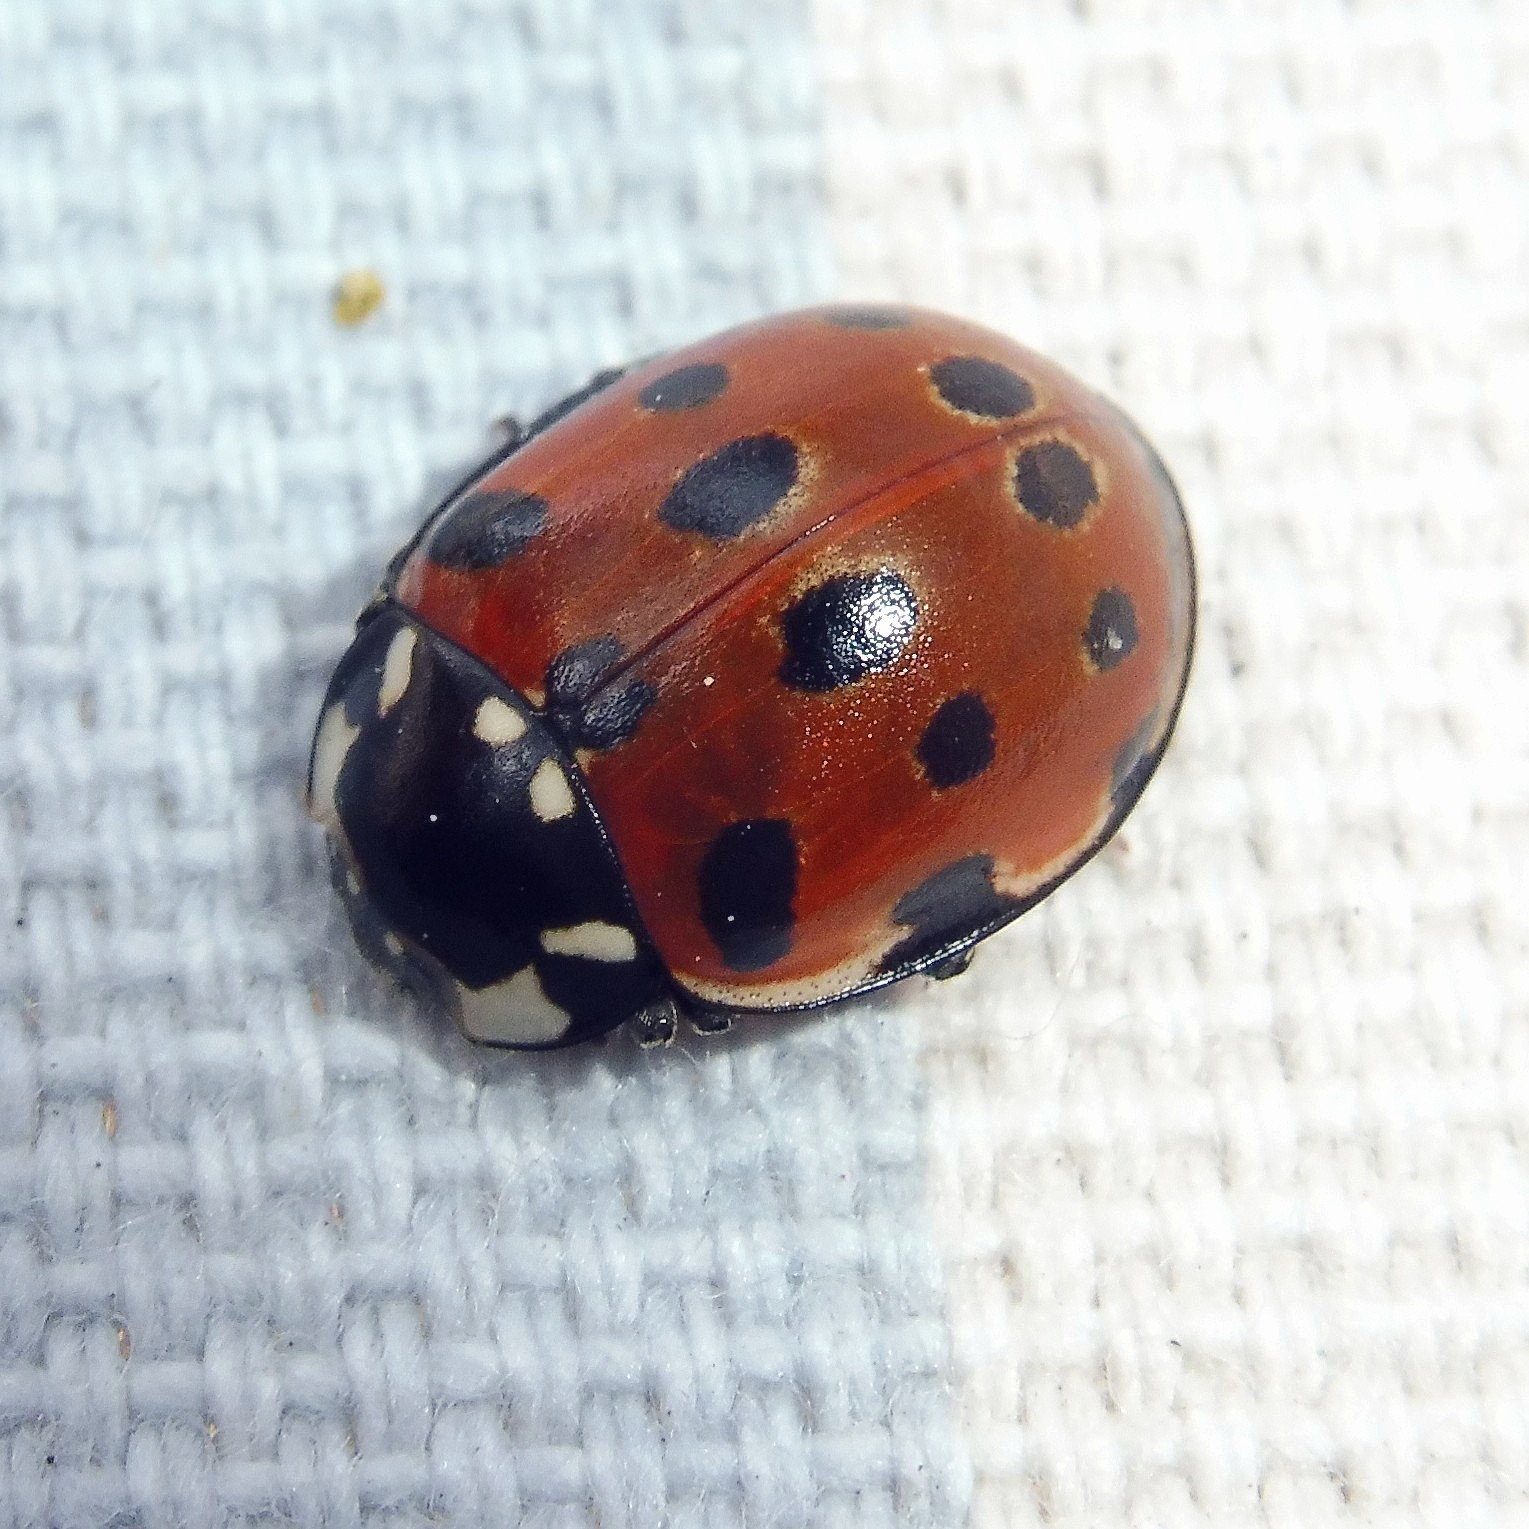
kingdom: Animalia
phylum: Arthropoda
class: Insecta
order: Coleoptera
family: Coccinellidae
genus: Anatis
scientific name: Anatis ocellata
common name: Eyed ladybird
